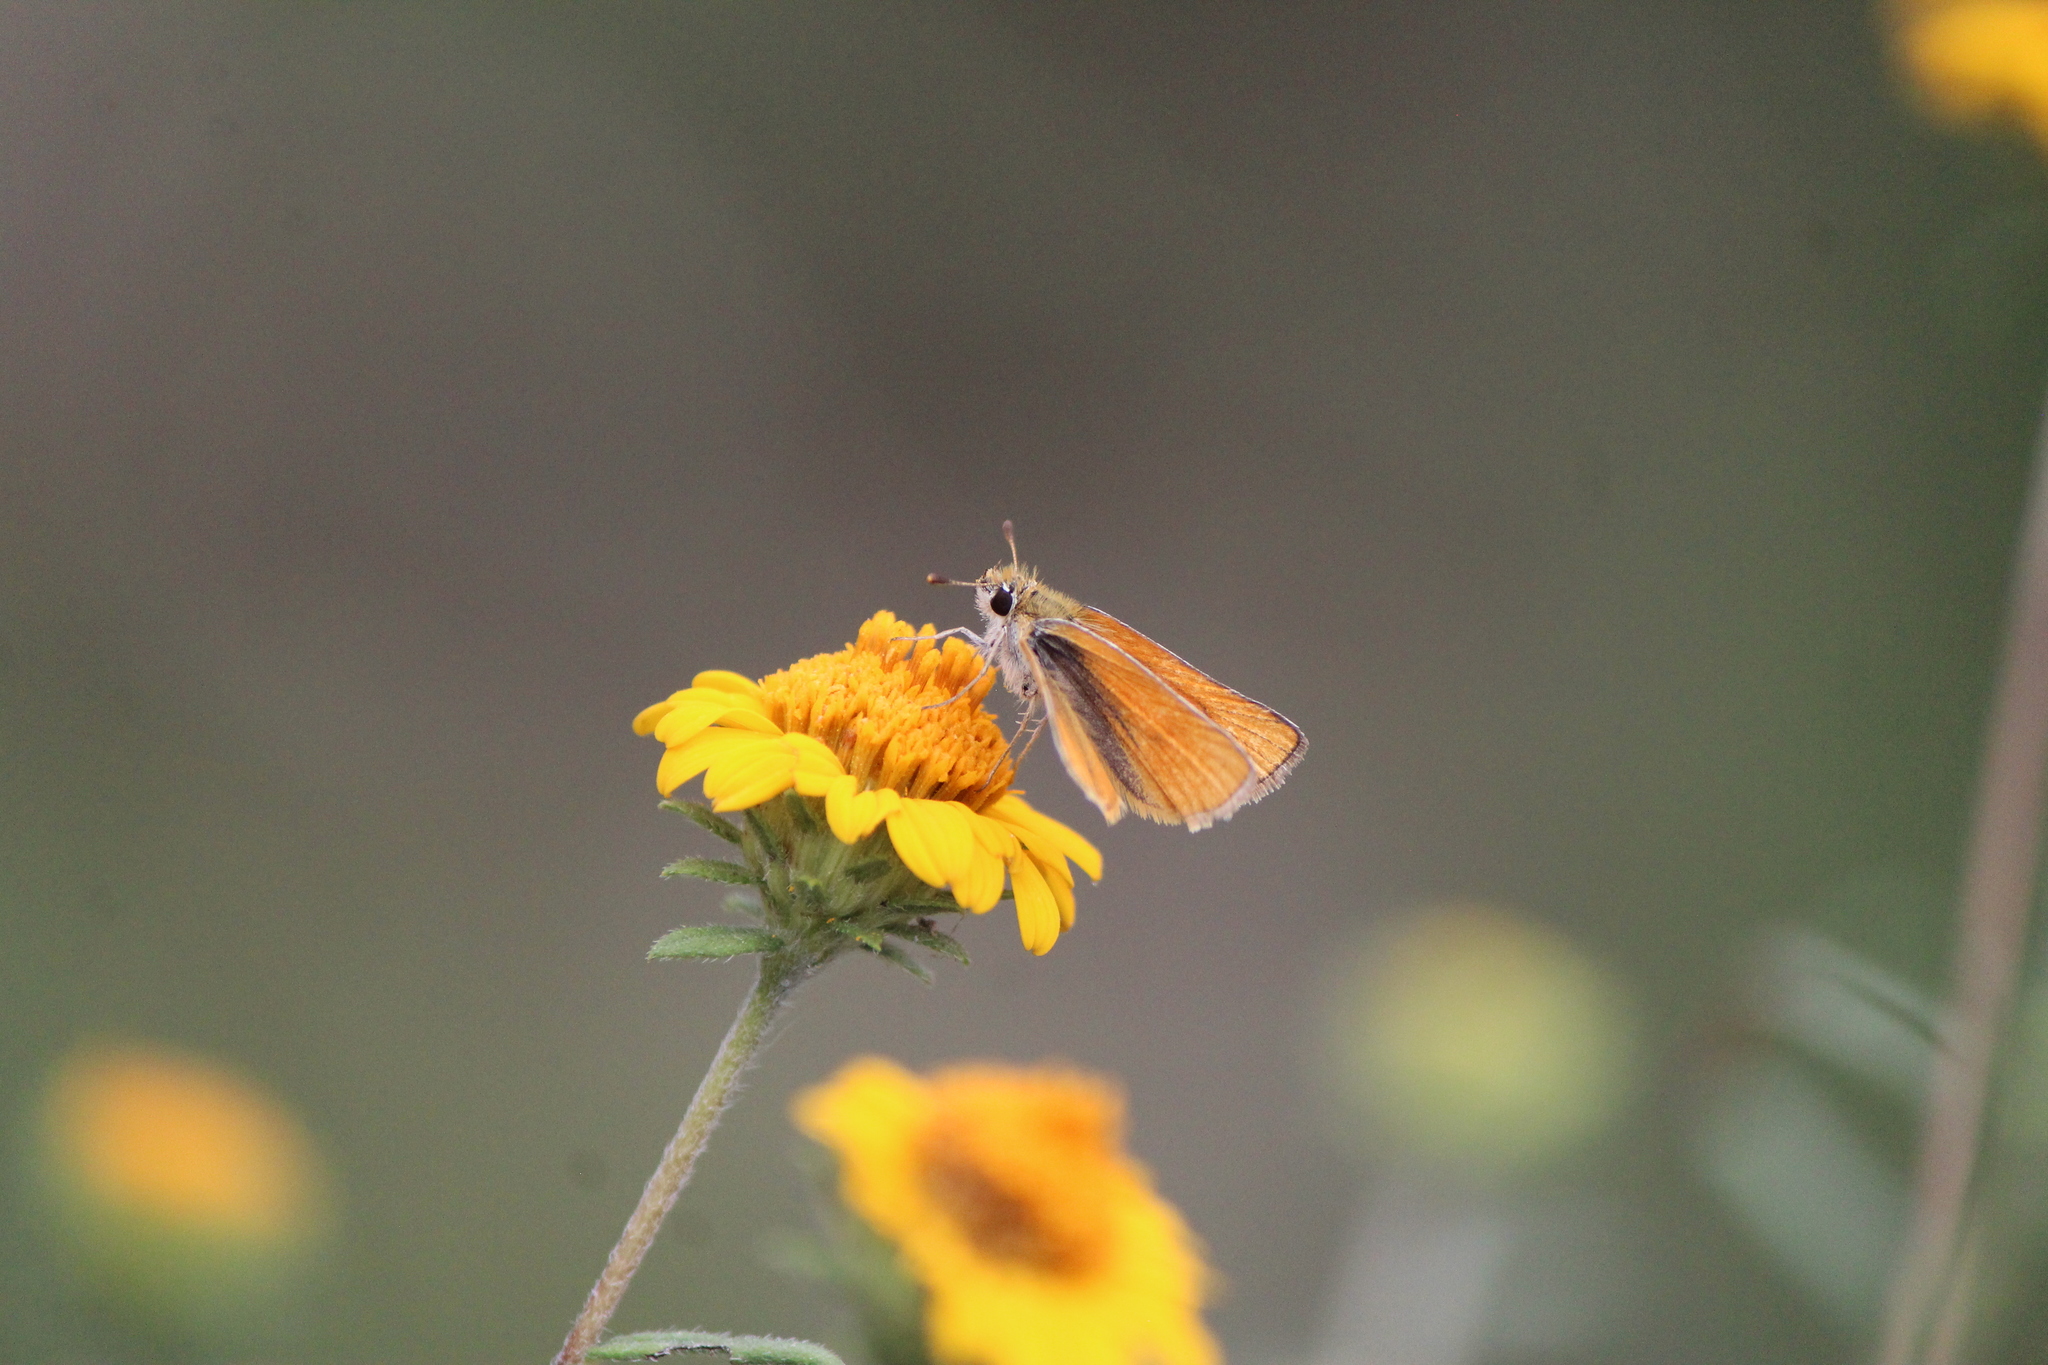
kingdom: Animalia
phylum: Arthropoda
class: Insecta
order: Lepidoptera
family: Hesperiidae
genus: Copaeodes
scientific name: Copaeodes minima
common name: Southern skipperling
